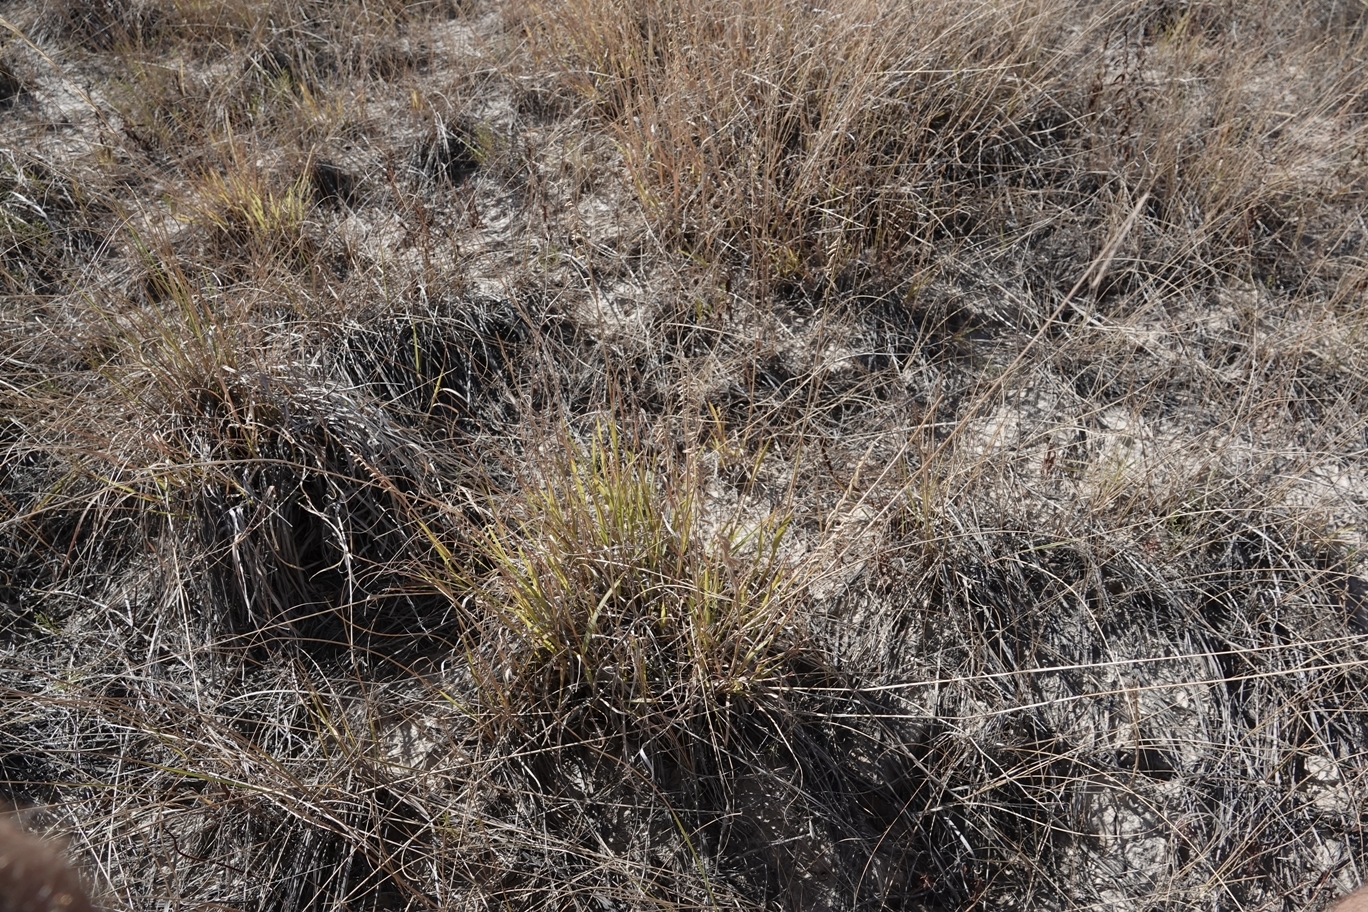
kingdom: Plantae
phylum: Tracheophyta
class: Liliopsida
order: Poales
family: Poaceae
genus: Bouteloua
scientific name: Bouteloua curtipendula
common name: Side-oats grama
